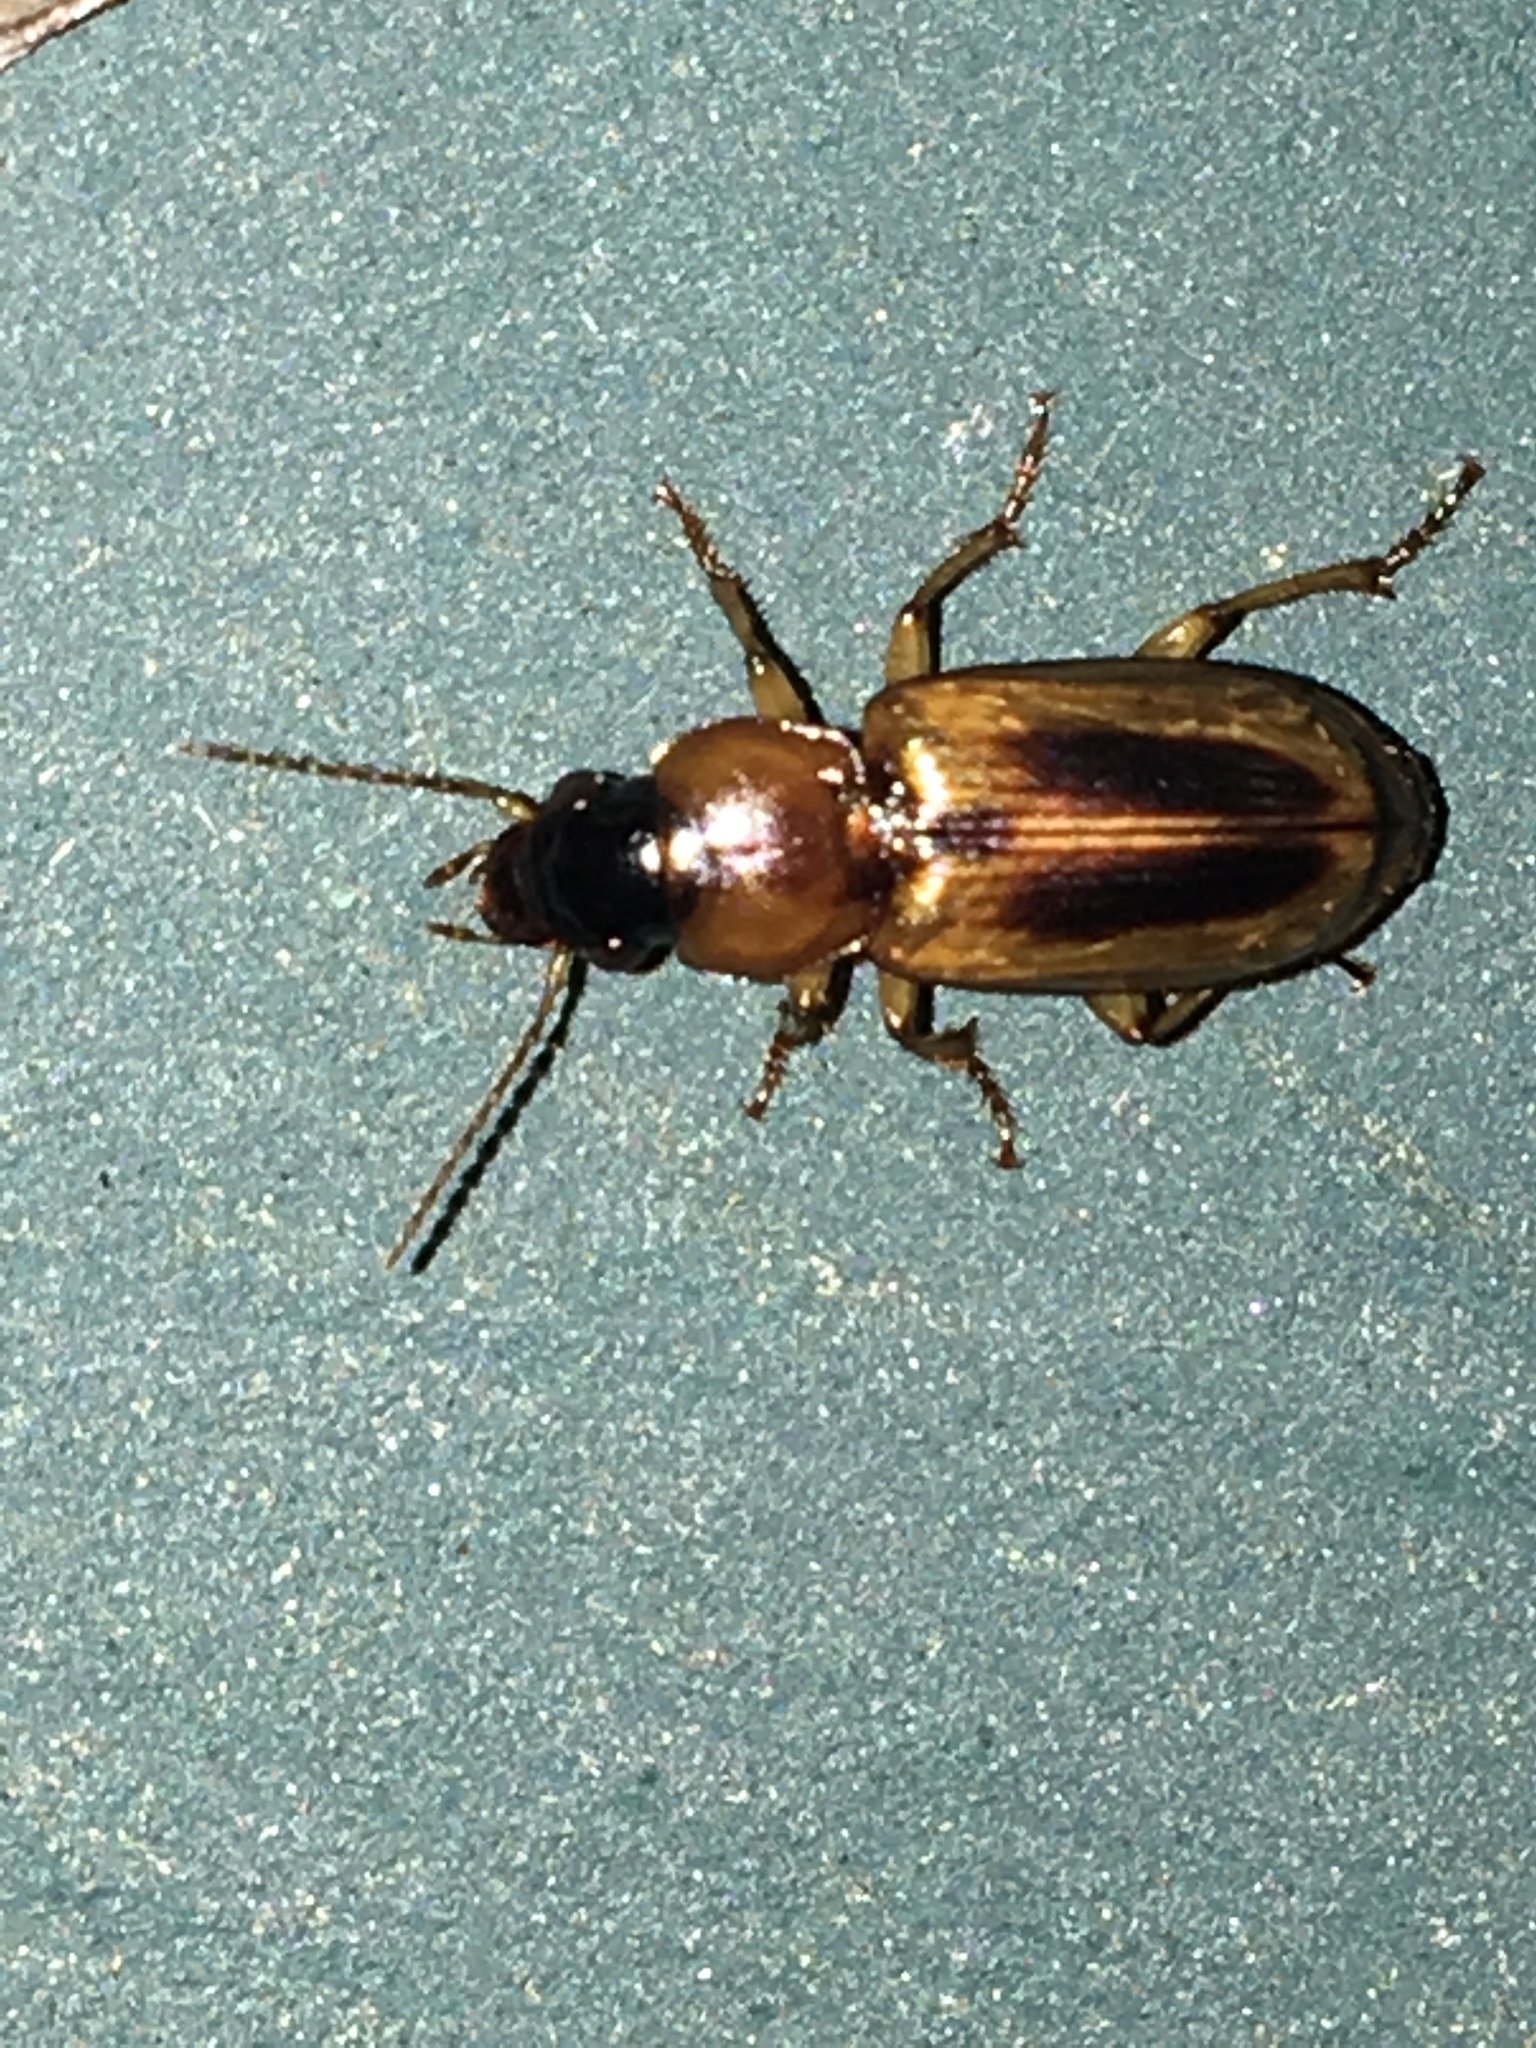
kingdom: Animalia
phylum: Arthropoda
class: Insecta
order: Coleoptera
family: Carabidae
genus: Stenolophus
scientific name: Stenolophus comma
